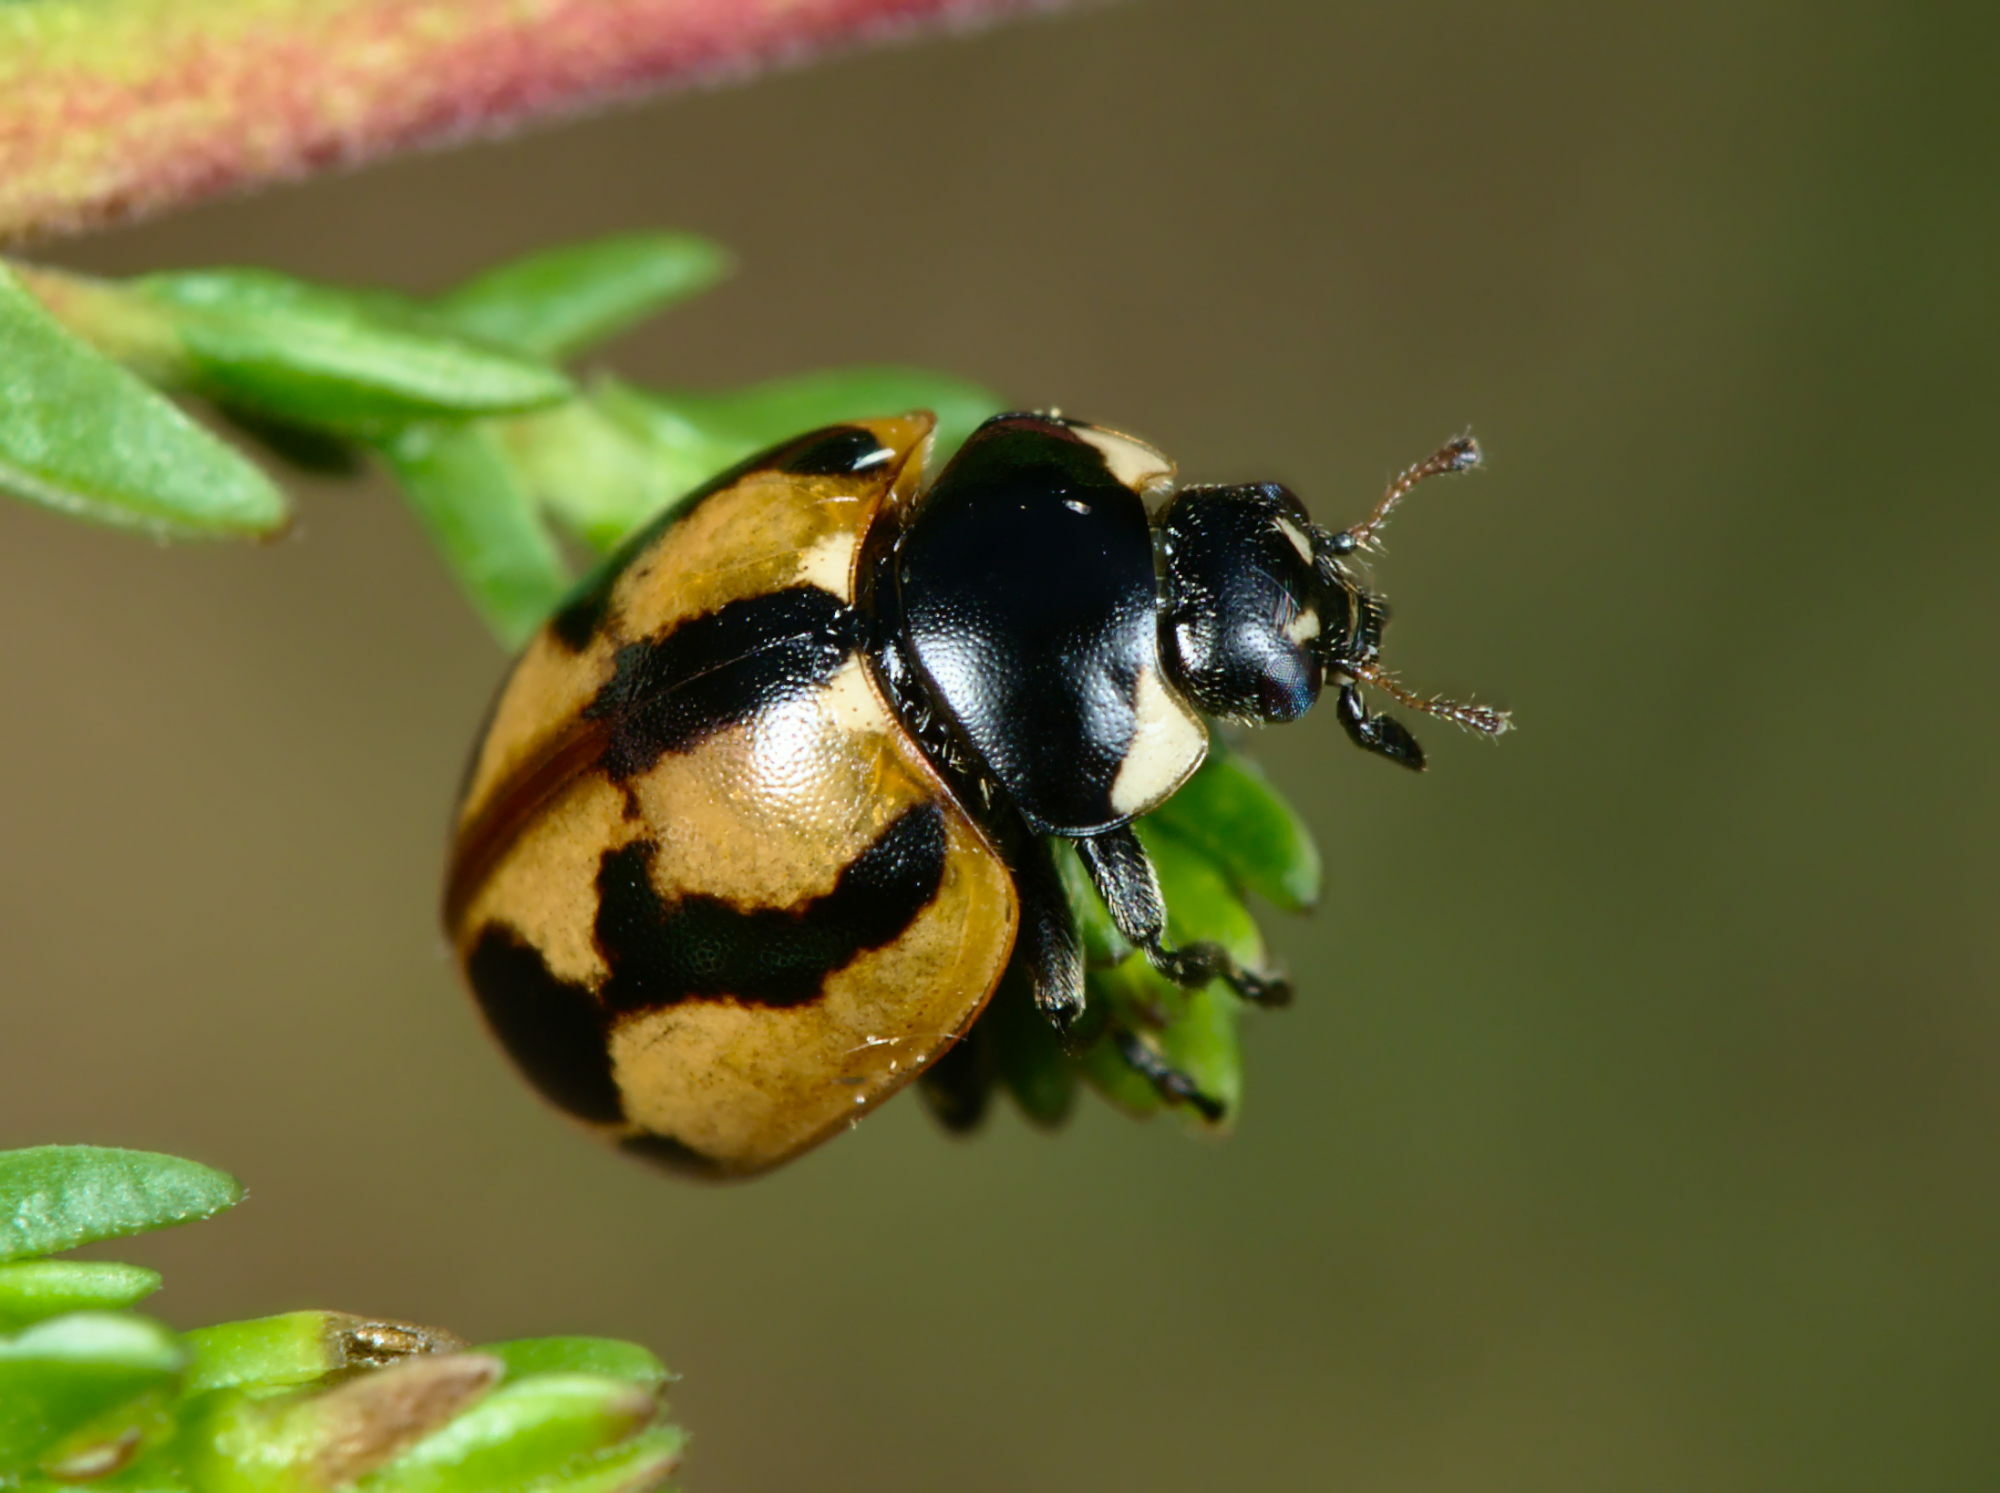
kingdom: Animalia
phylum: Arthropoda
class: Insecta
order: Coleoptera
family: Coccinellidae
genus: Coccinella
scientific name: Coccinella hieroglyphica
